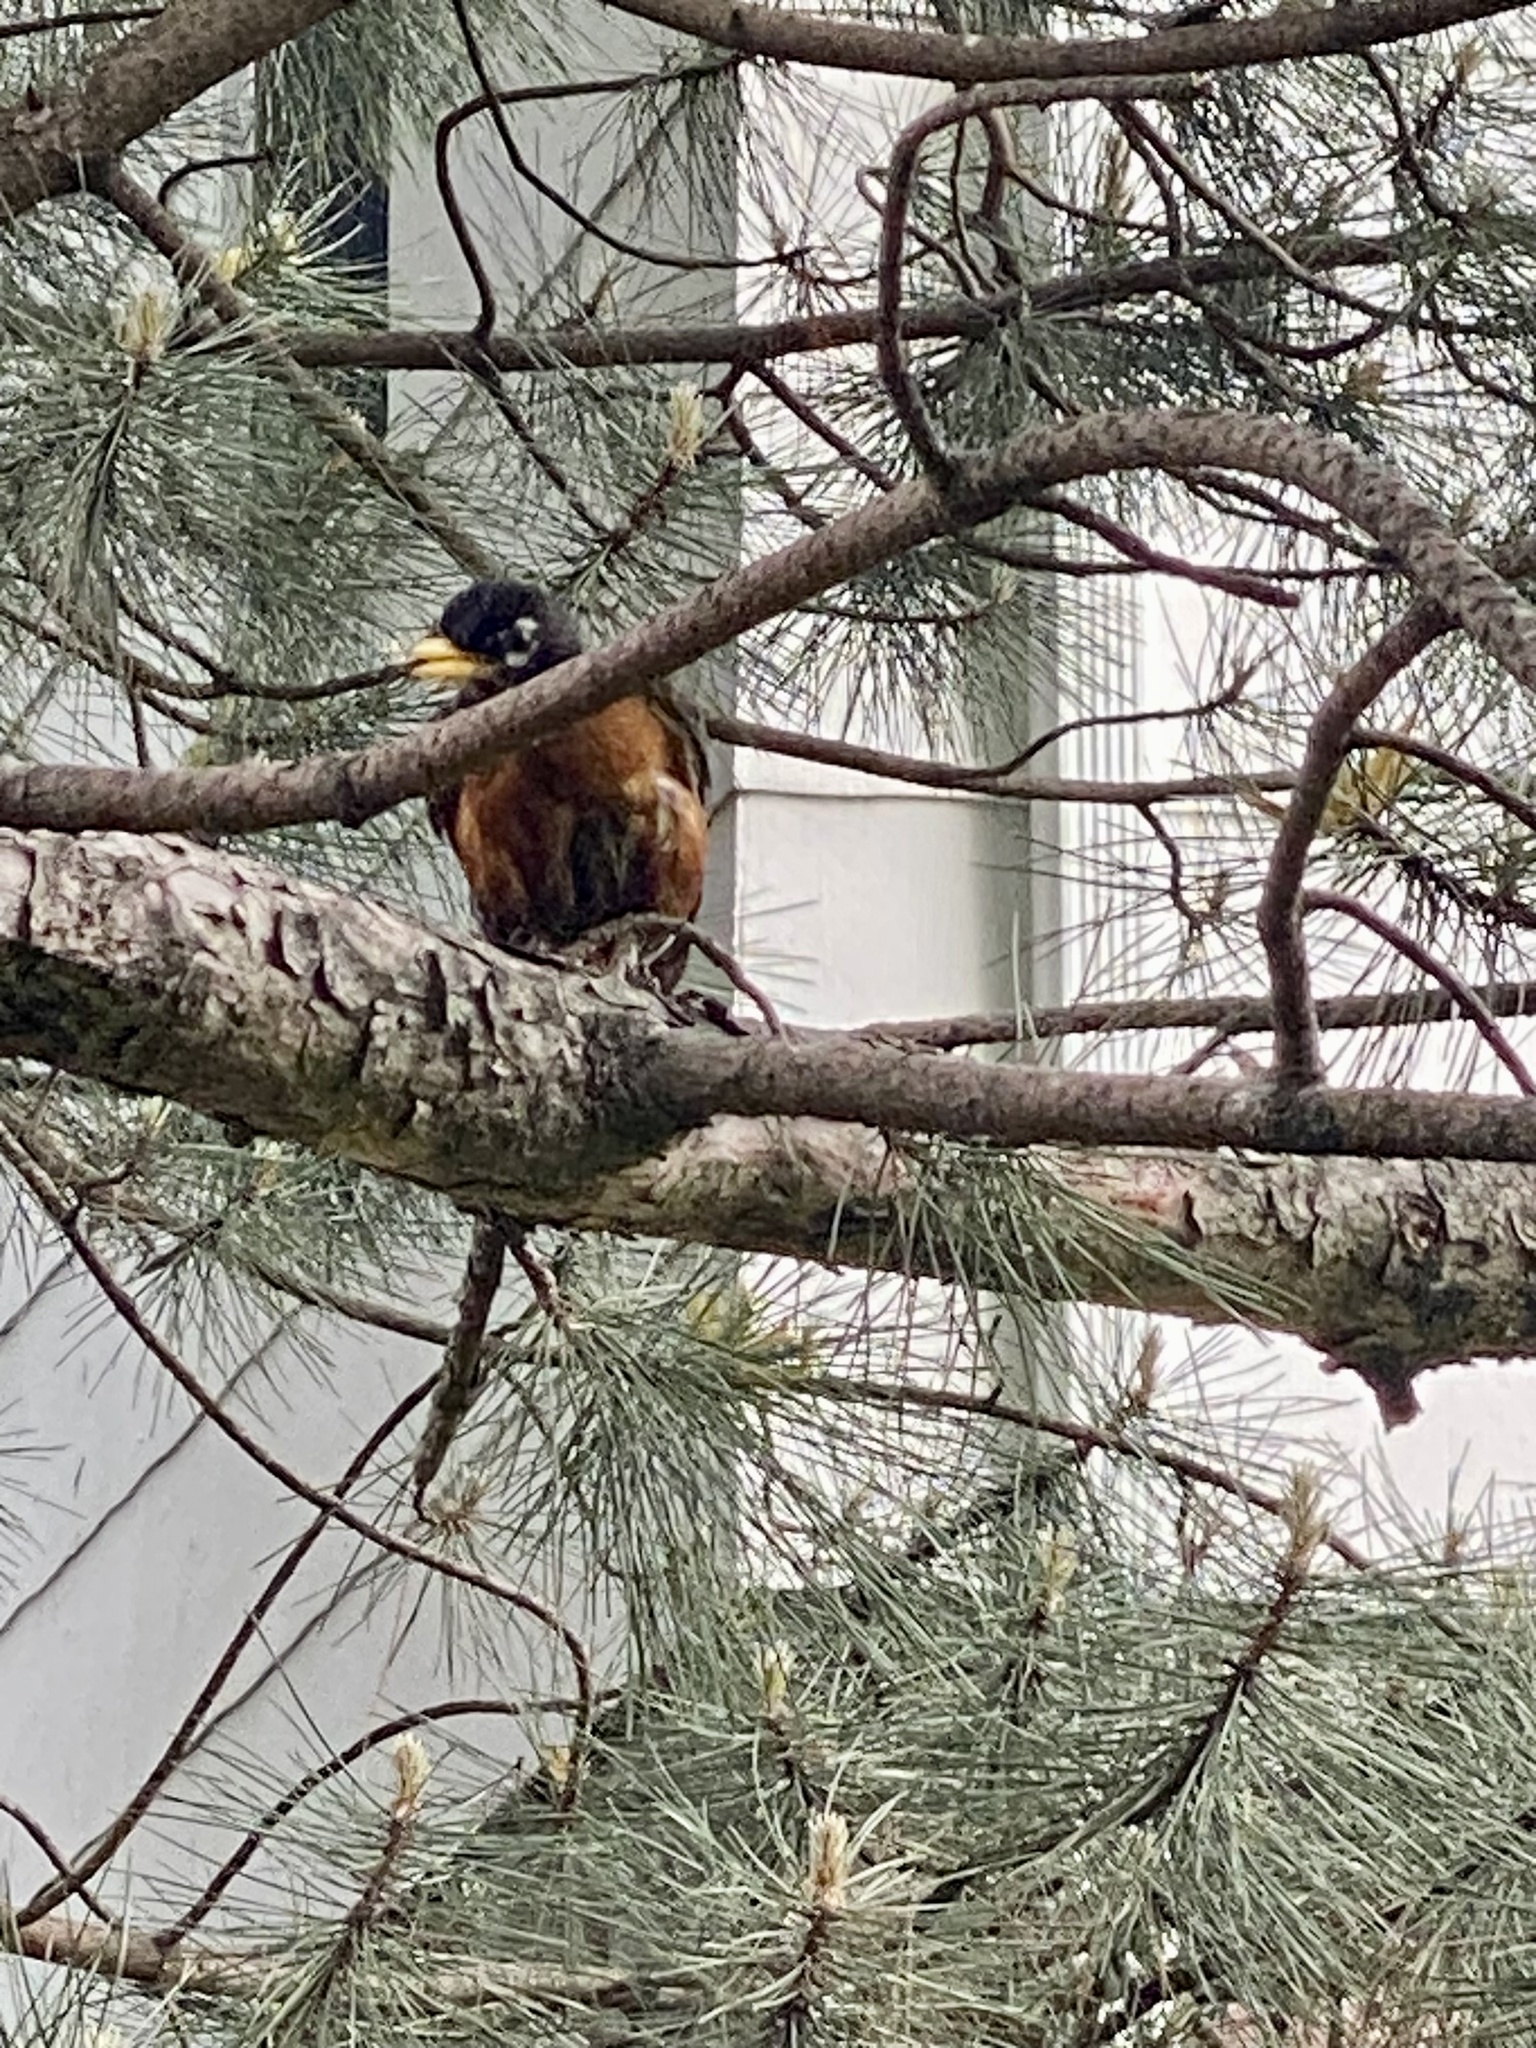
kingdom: Animalia
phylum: Chordata
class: Aves
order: Passeriformes
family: Turdidae
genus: Turdus
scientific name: Turdus migratorius
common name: American robin
